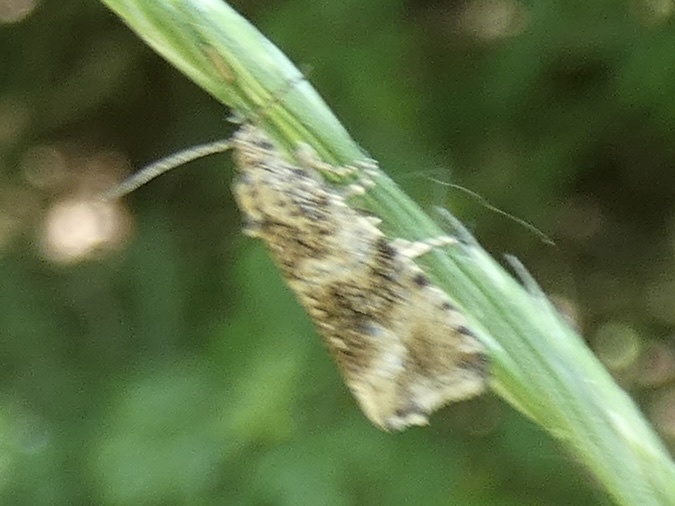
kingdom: Animalia
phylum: Arthropoda
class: Insecta
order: Lepidoptera
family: Tortricidae
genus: Syricoris
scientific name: Syricoris lacunana
